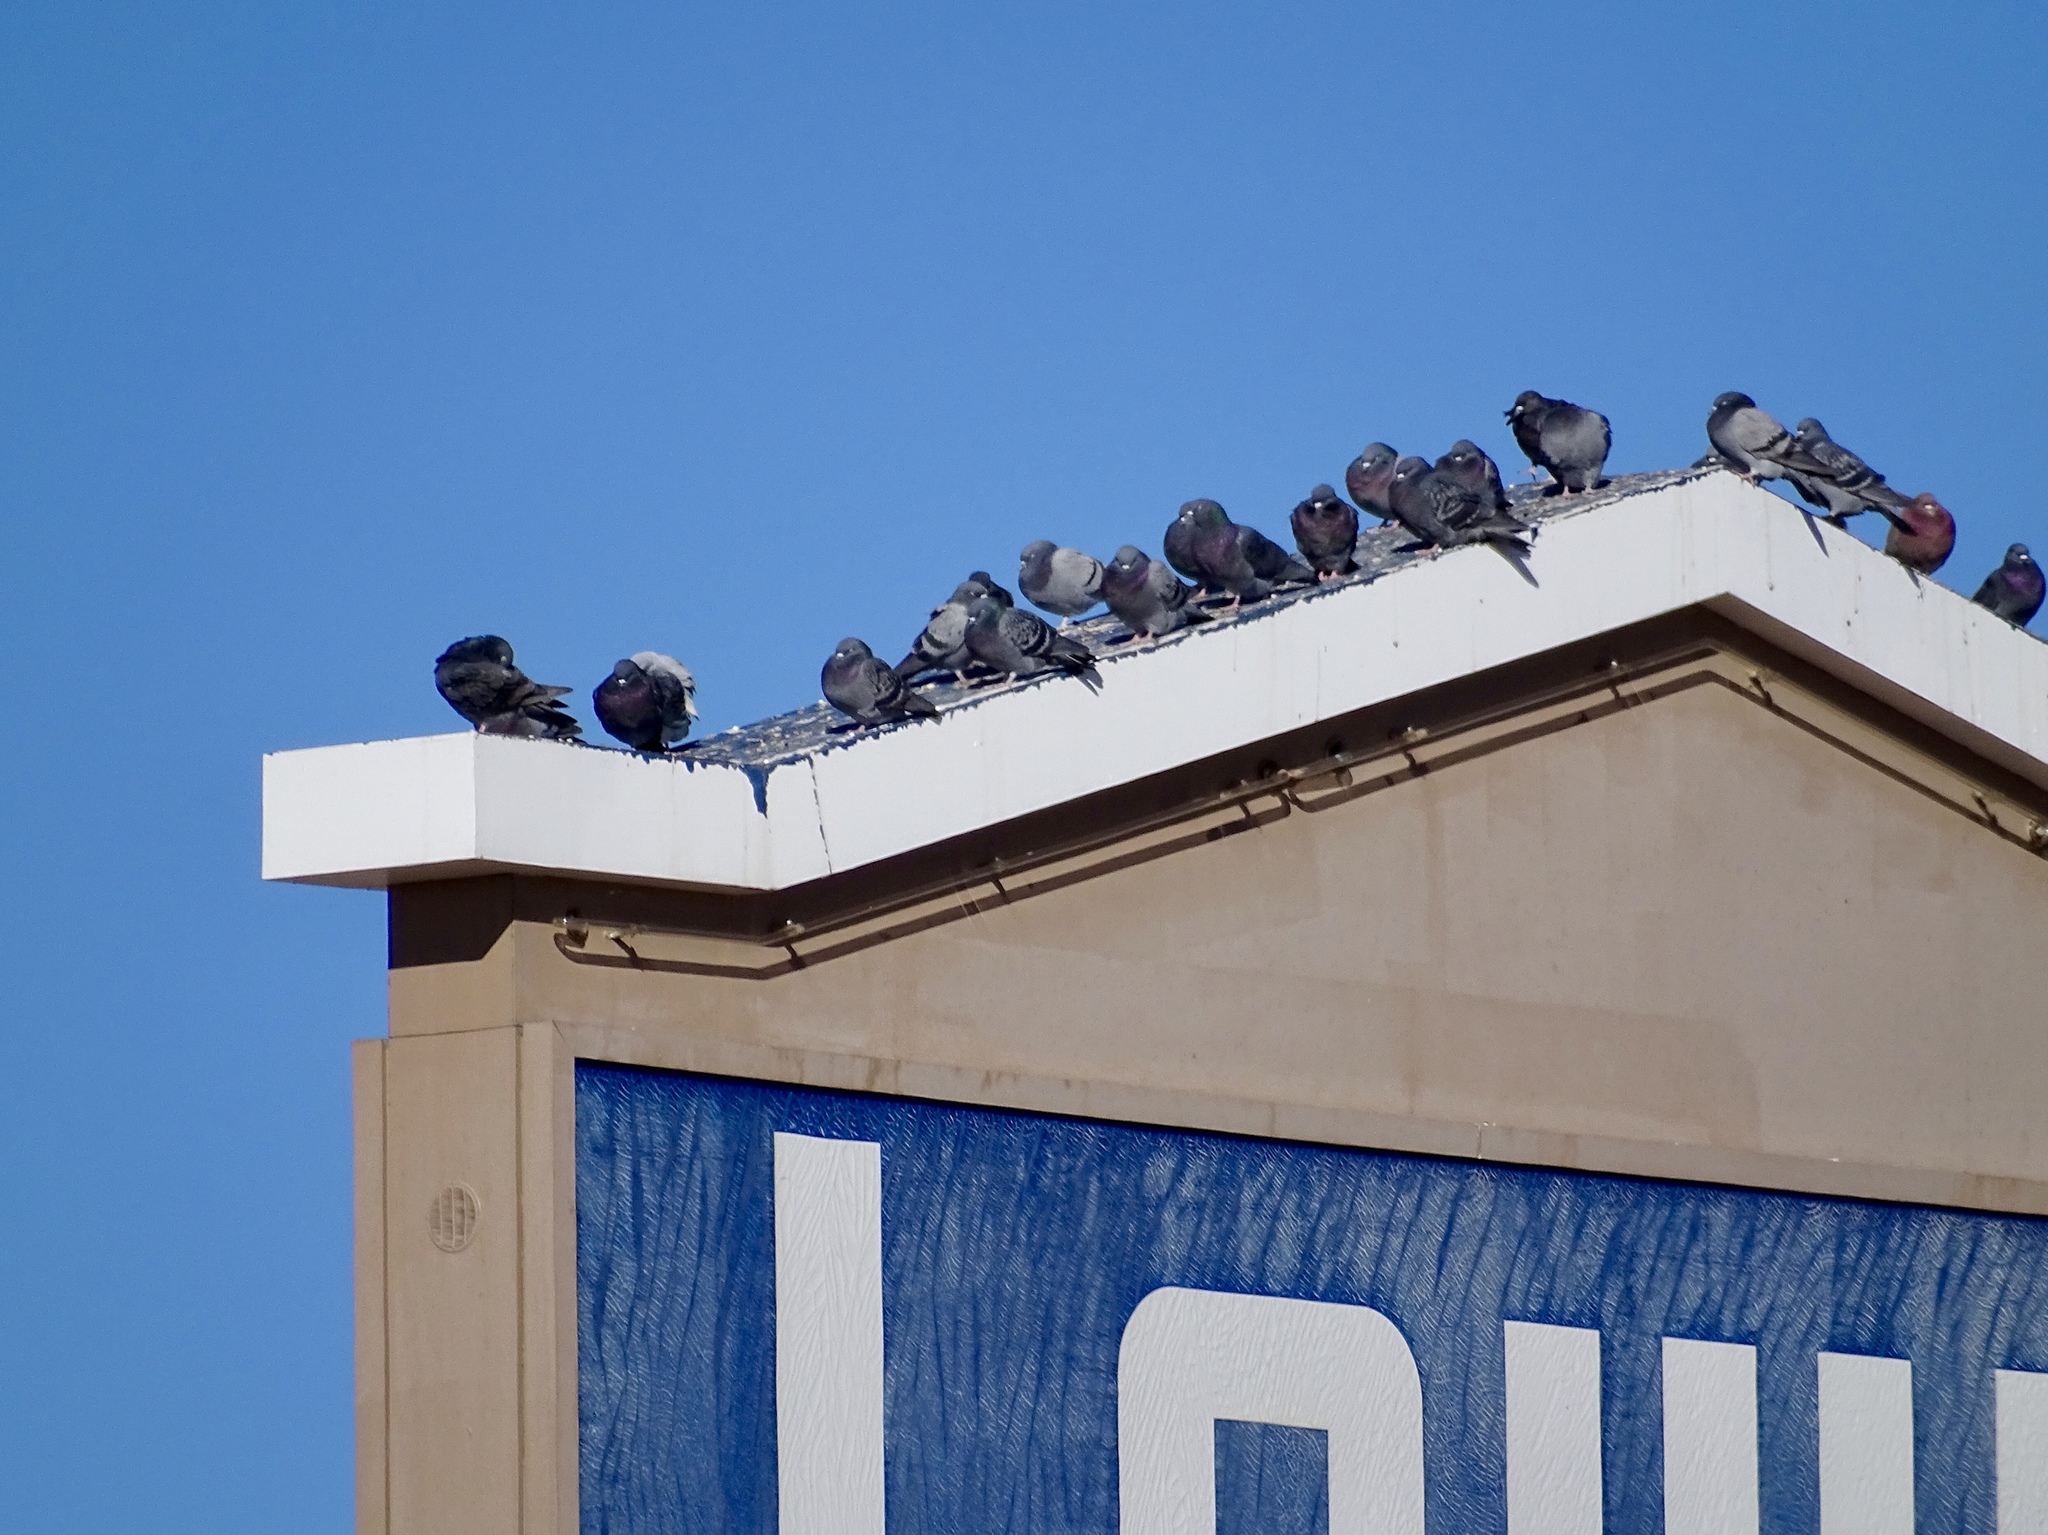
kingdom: Animalia
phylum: Chordata
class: Aves
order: Columbiformes
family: Columbidae
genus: Columba
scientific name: Columba livia
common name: Rock pigeon
